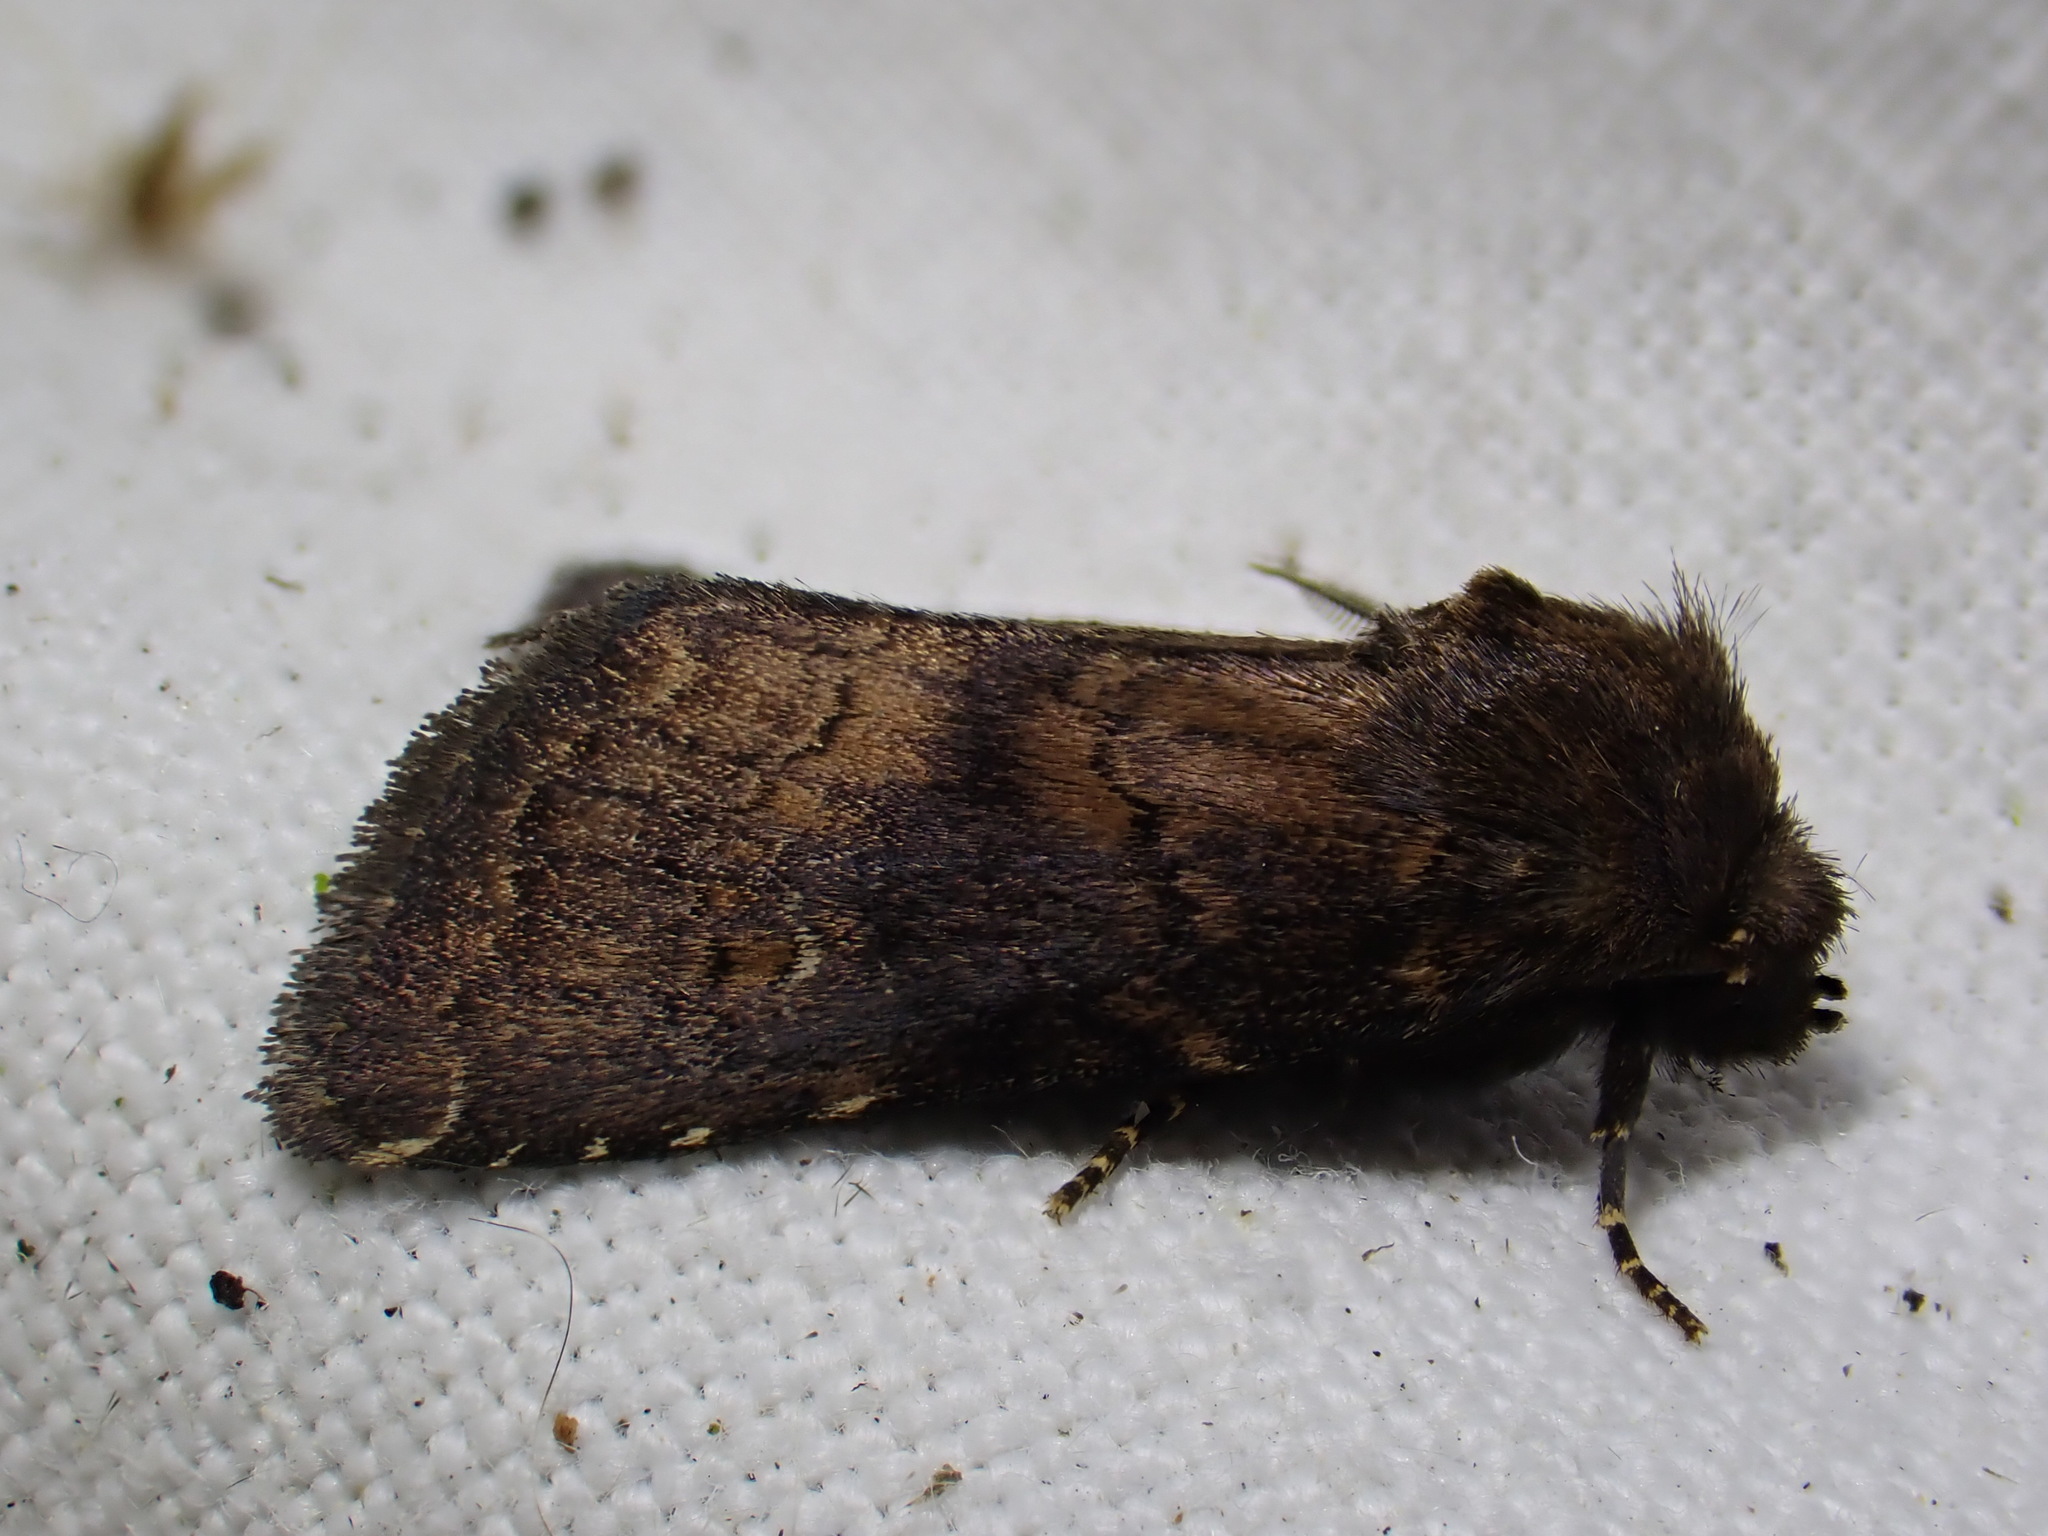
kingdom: Animalia
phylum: Arthropoda
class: Insecta
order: Lepidoptera
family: Noctuidae
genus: Charanyca
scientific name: Charanyca ferruginea
